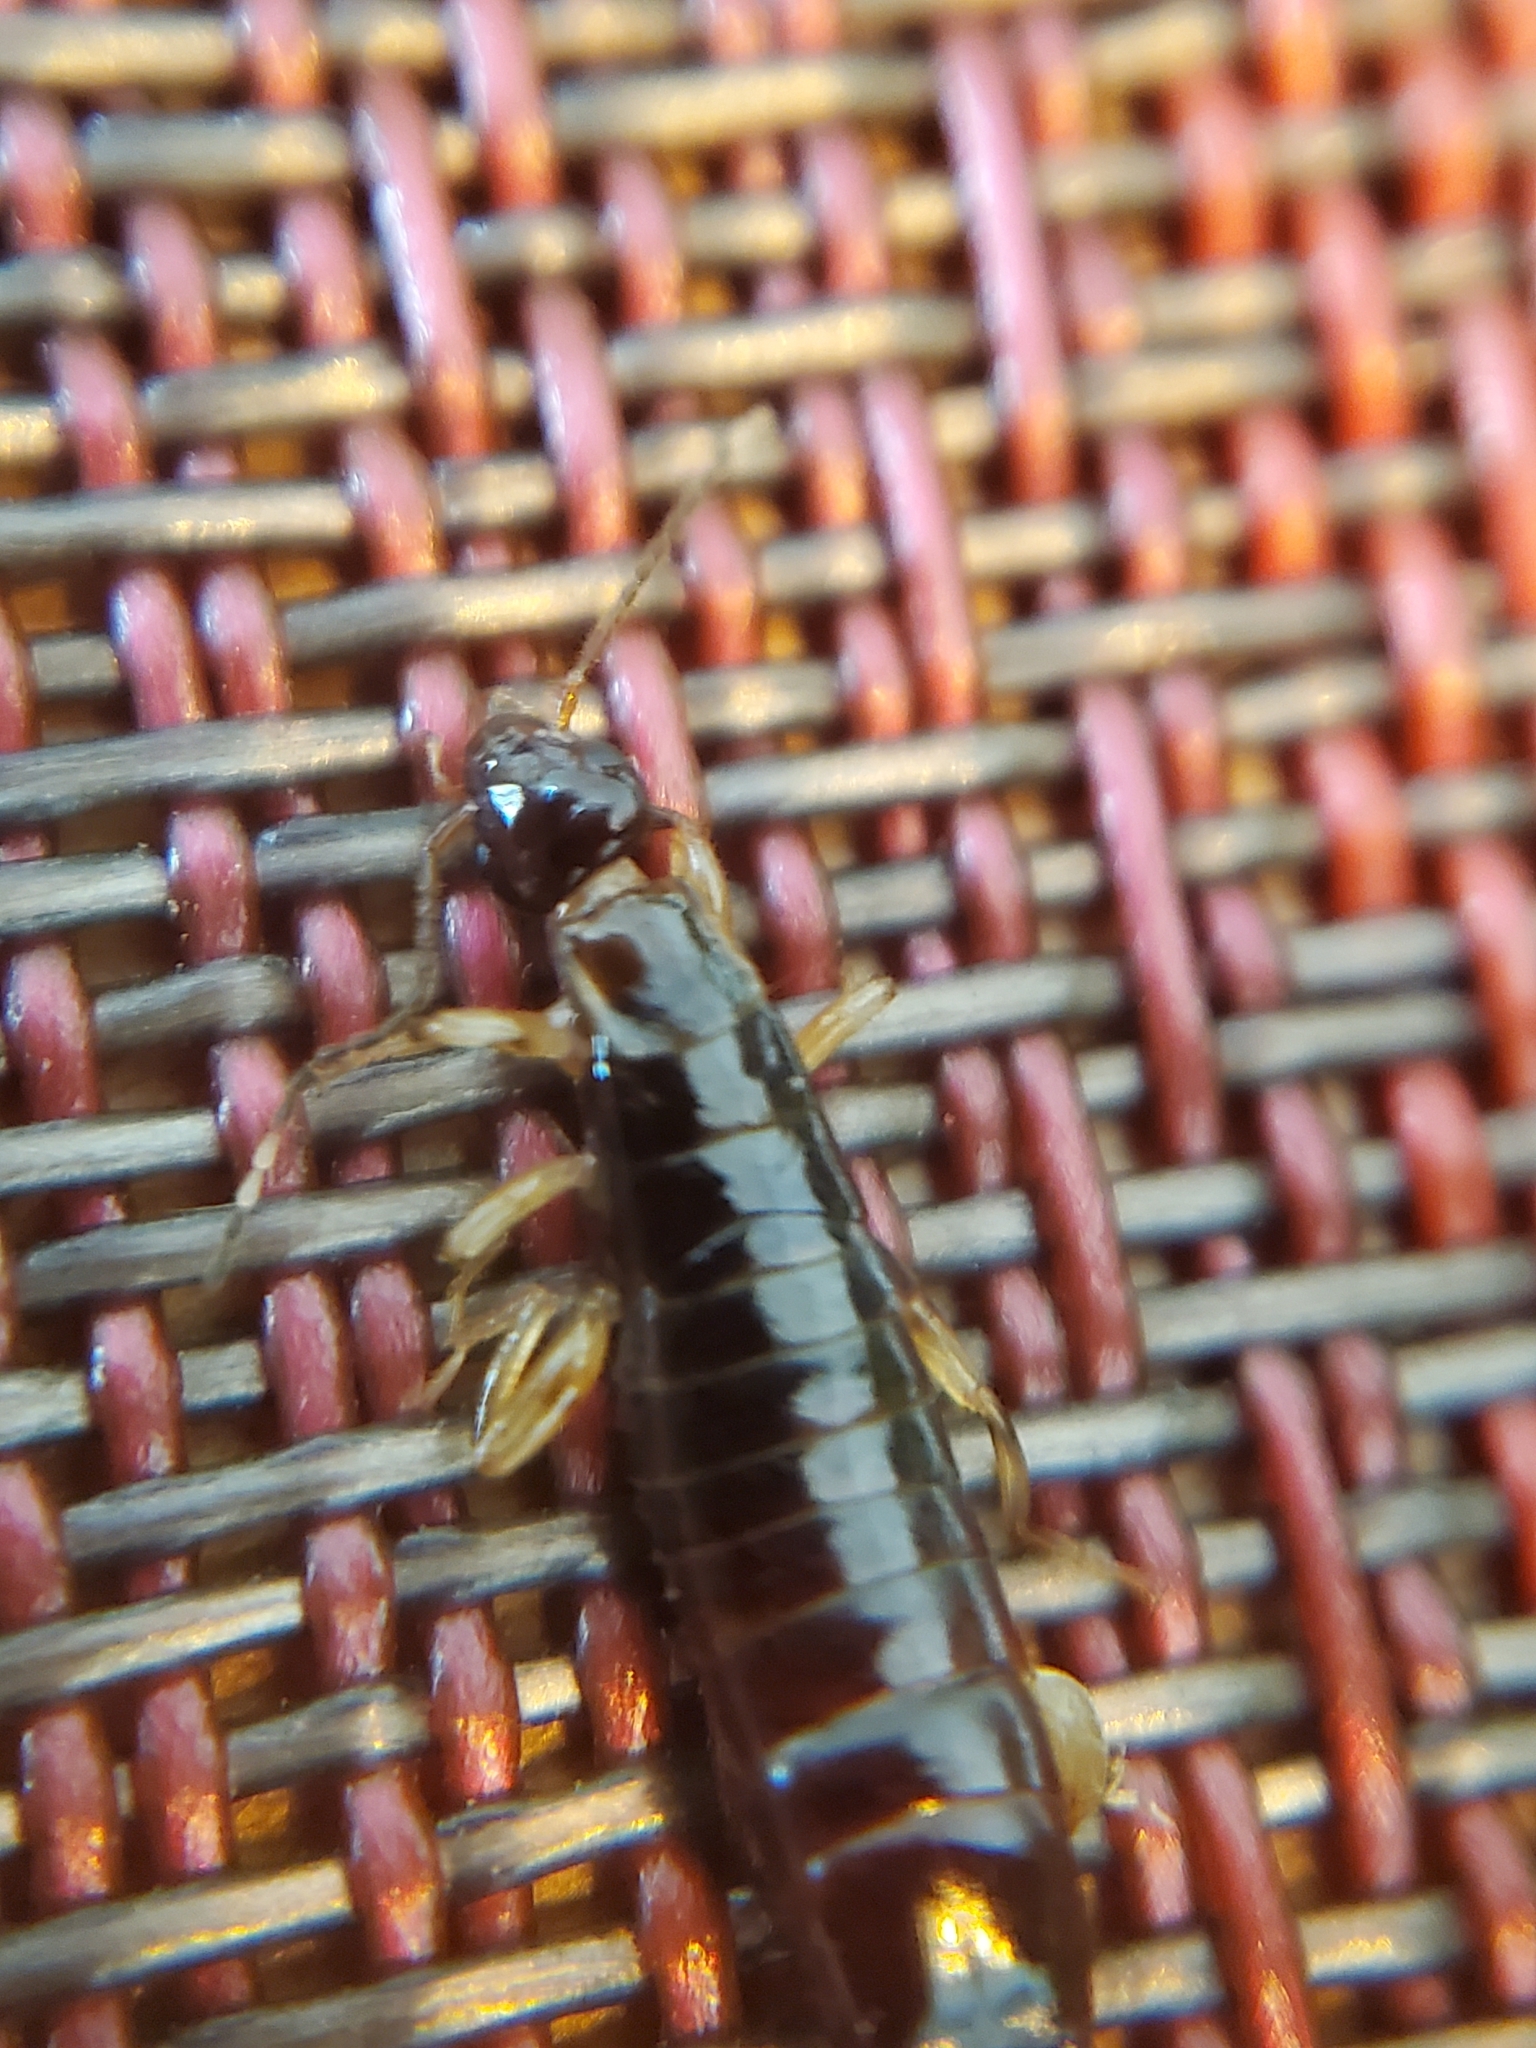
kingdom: Animalia
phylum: Arthropoda
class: Insecta
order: Dermaptera
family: Anisolabididae
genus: Euborellia
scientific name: Euborellia annulipes
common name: Ringlegged earwig
